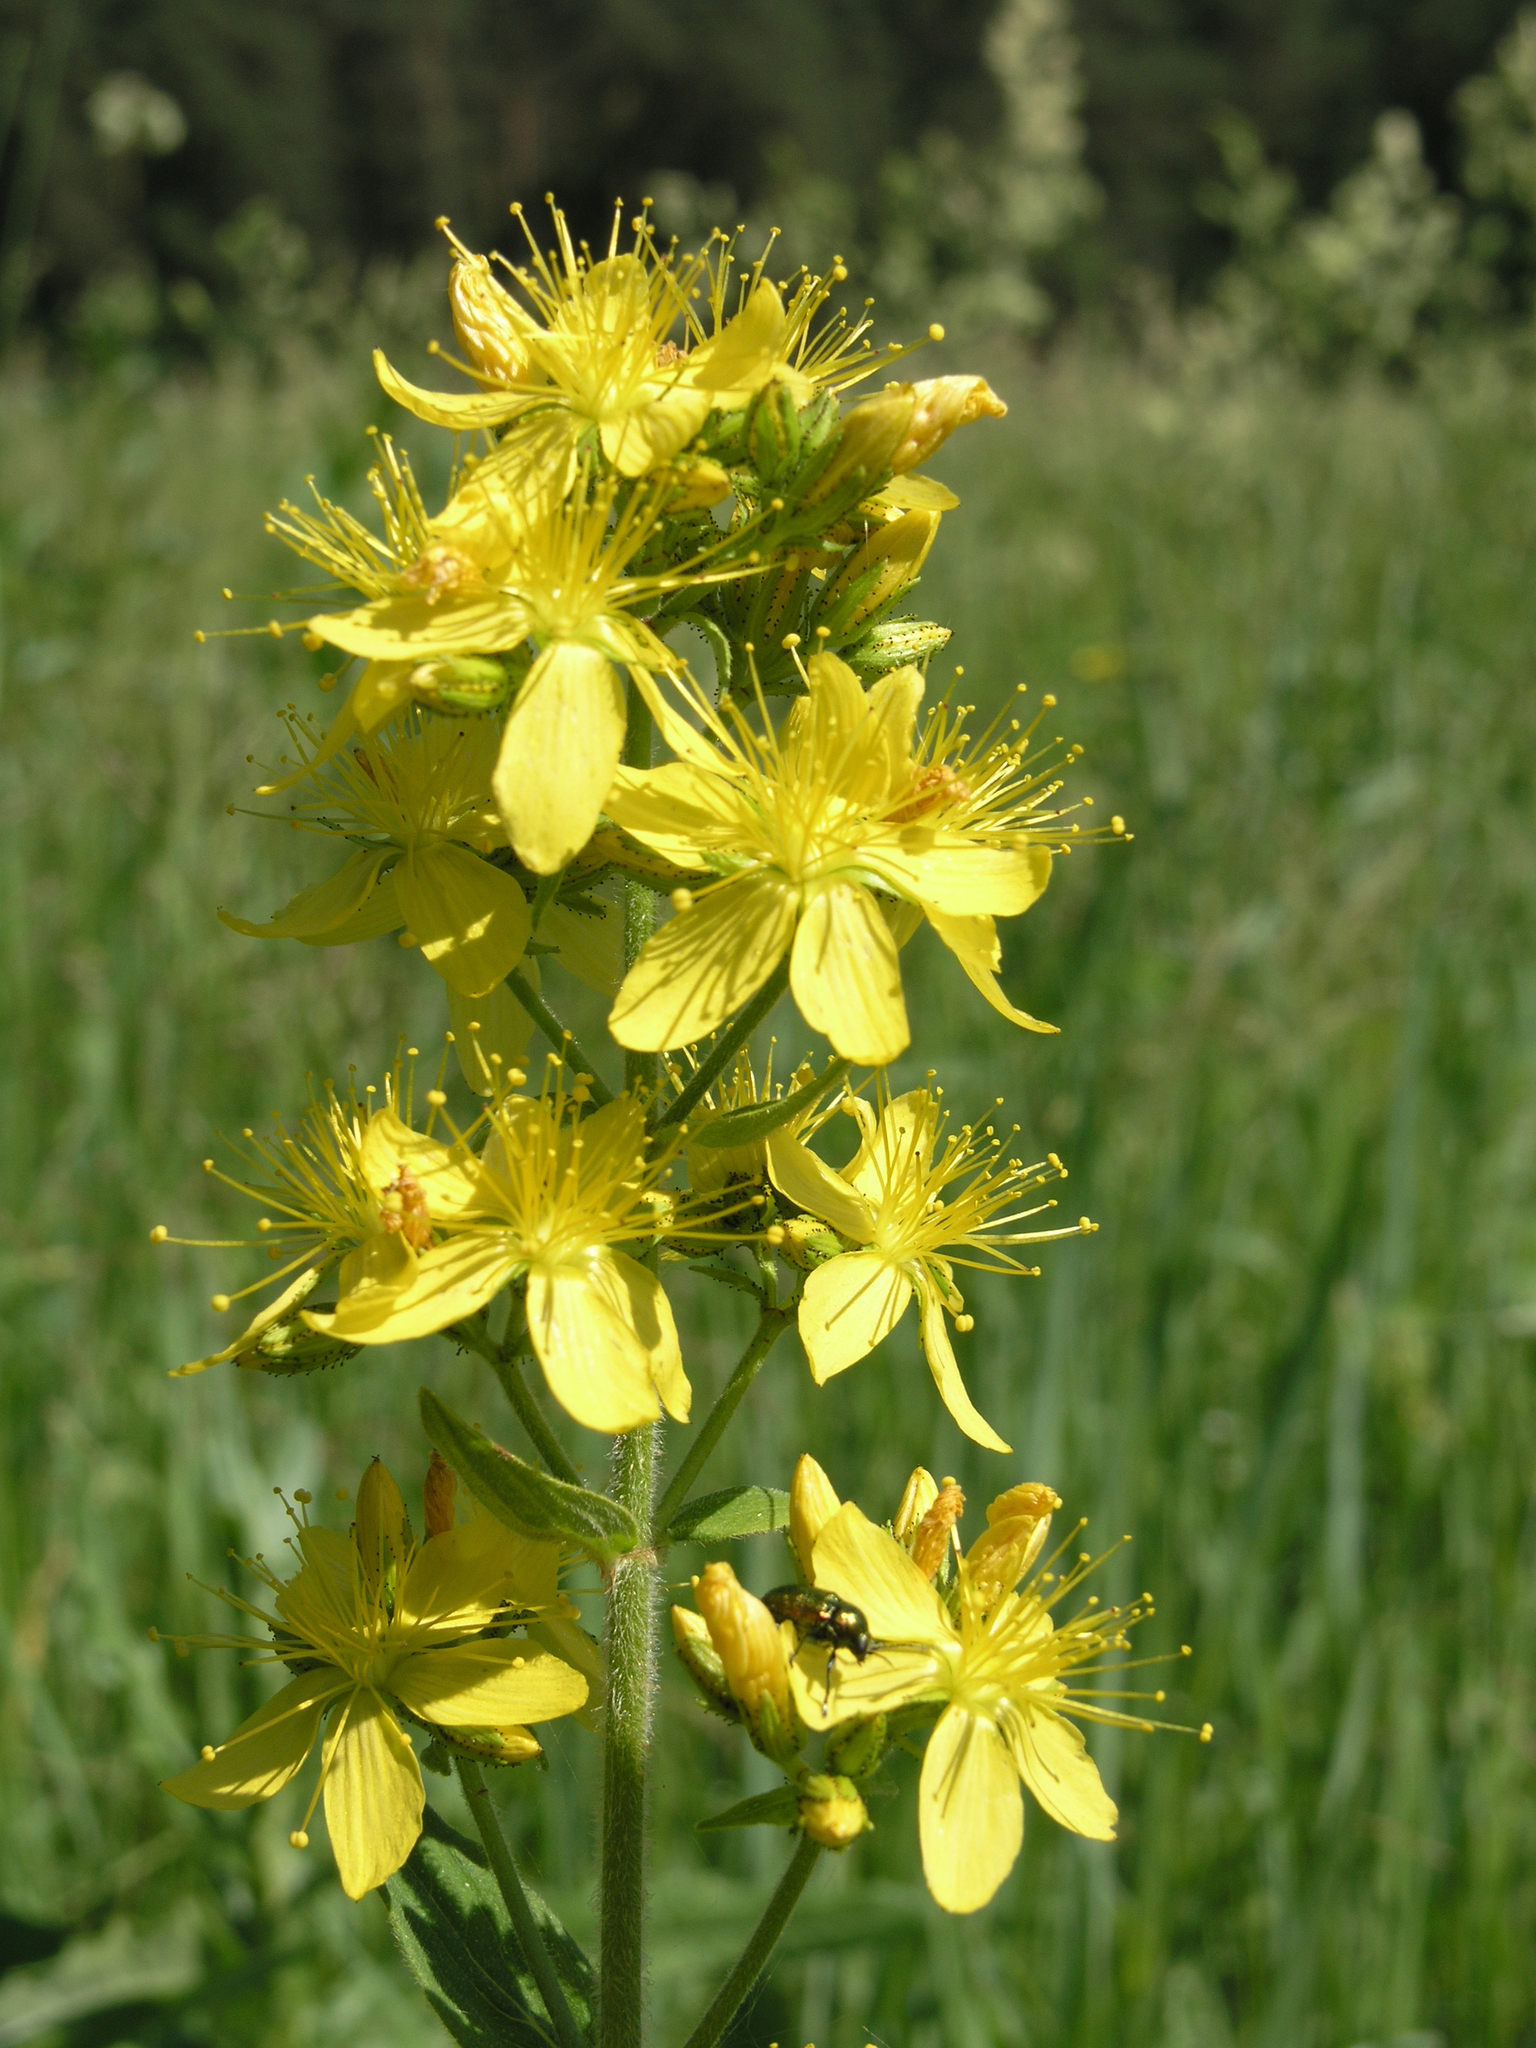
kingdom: Plantae
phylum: Tracheophyta
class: Magnoliopsida
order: Malpighiales
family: Hypericaceae
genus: Hypericum
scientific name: Hypericum hirsutum
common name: Hairy st. john's-wort
